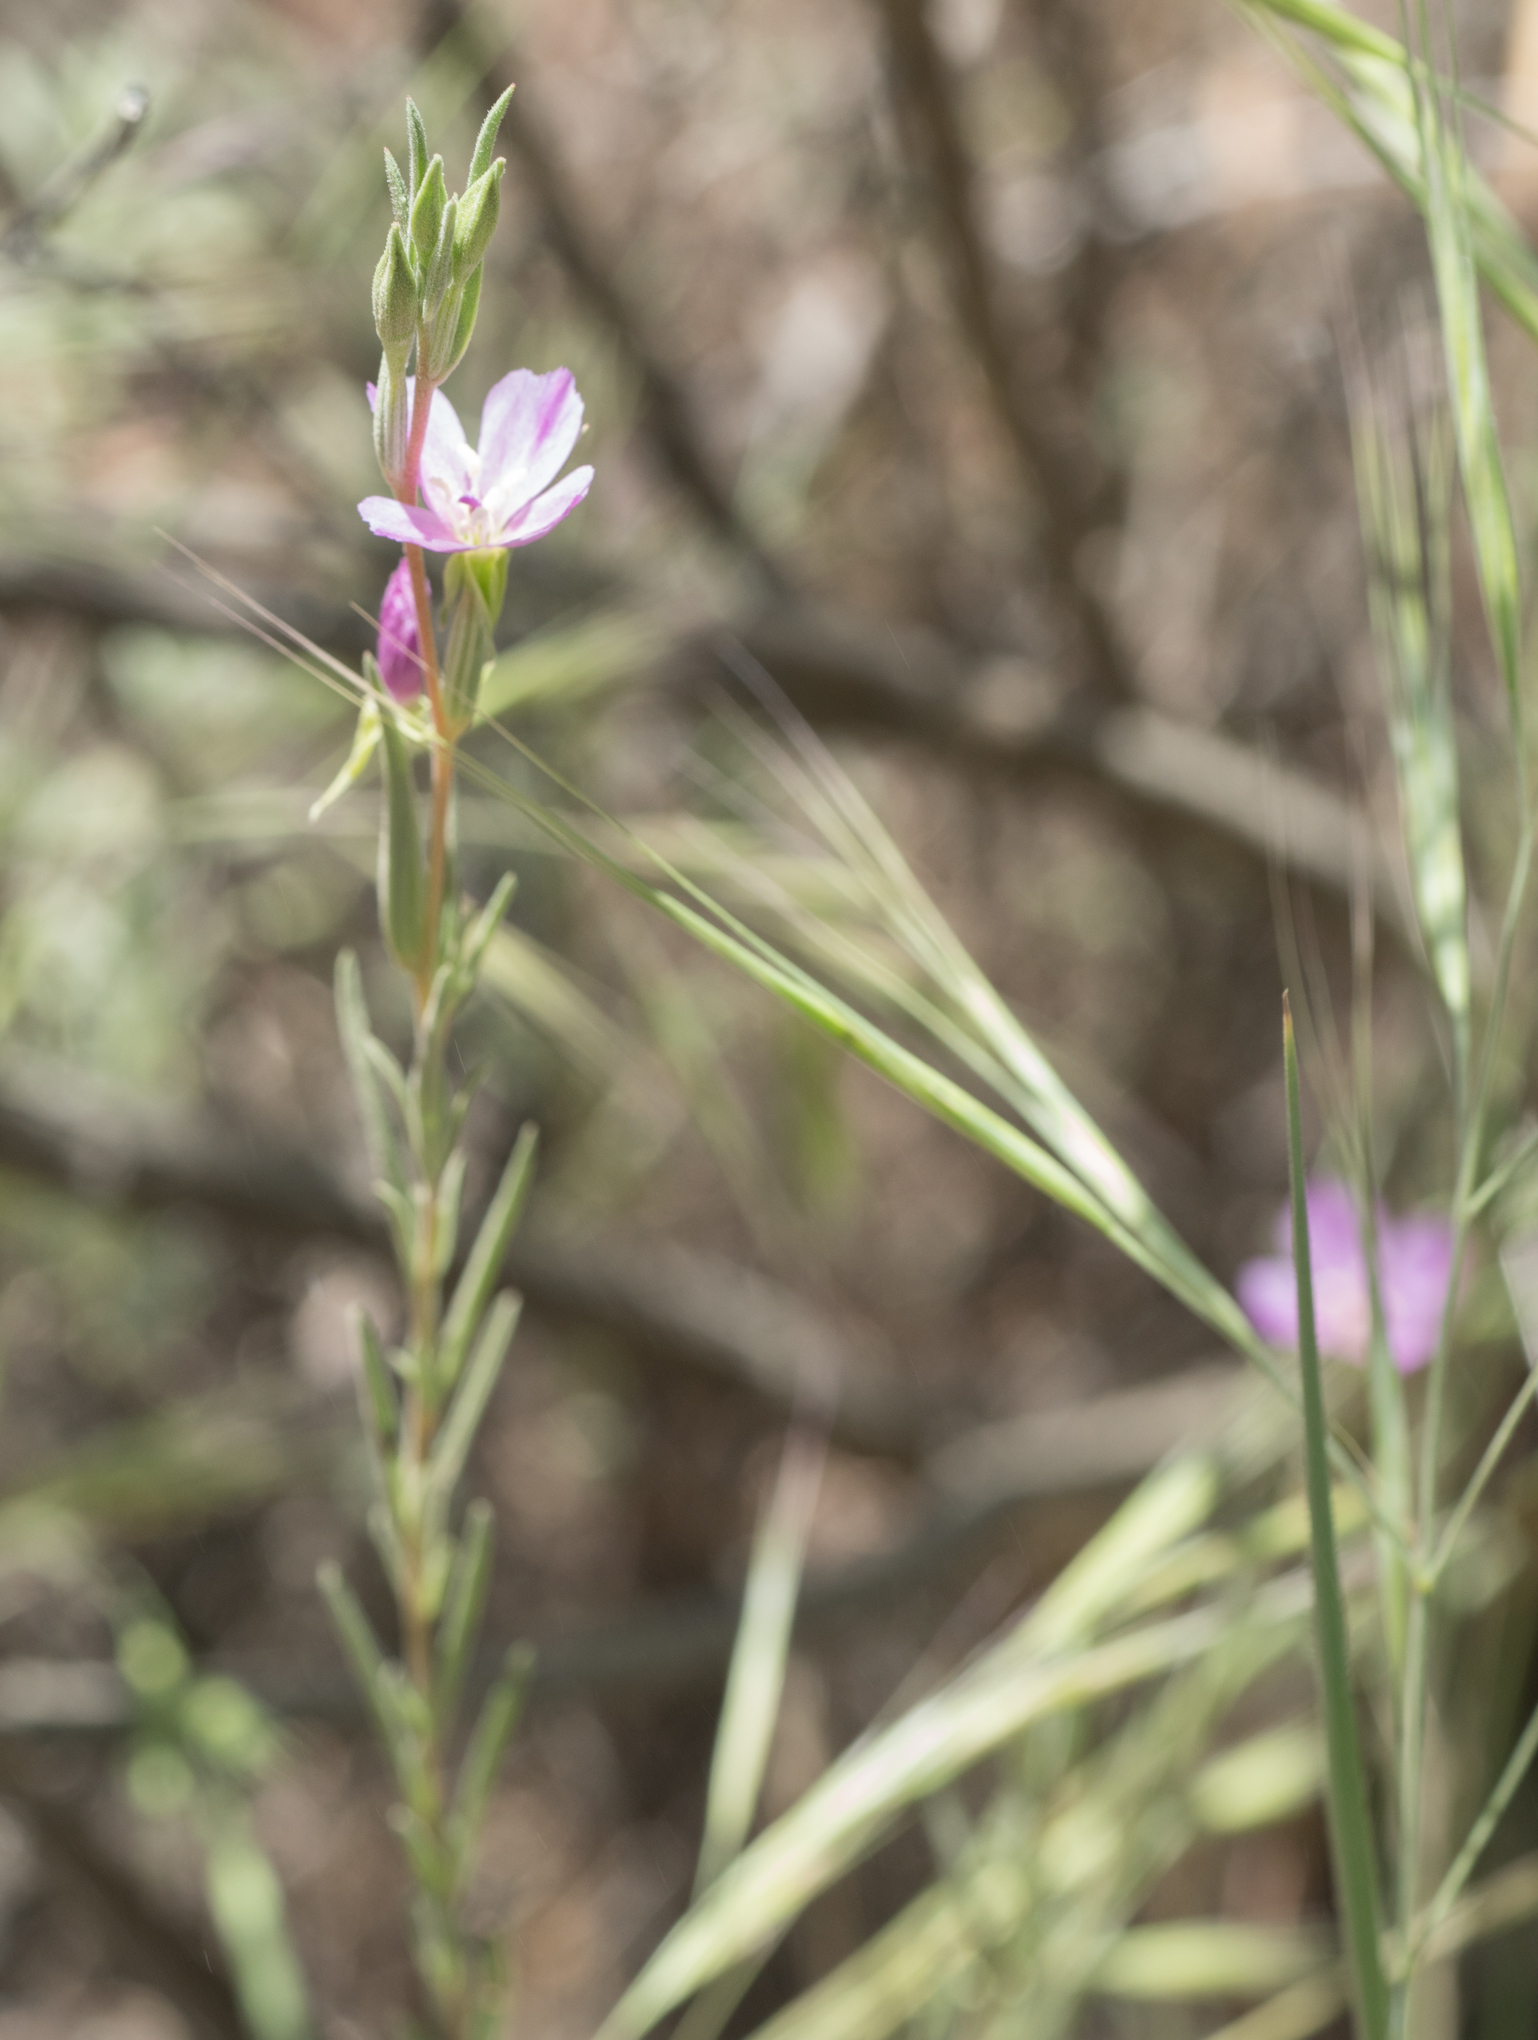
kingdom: Plantae
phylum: Tracheophyta
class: Magnoliopsida
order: Myrtales
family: Onagraceae
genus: Clarkia
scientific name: Clarkia purpurea
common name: Purple clarkia
